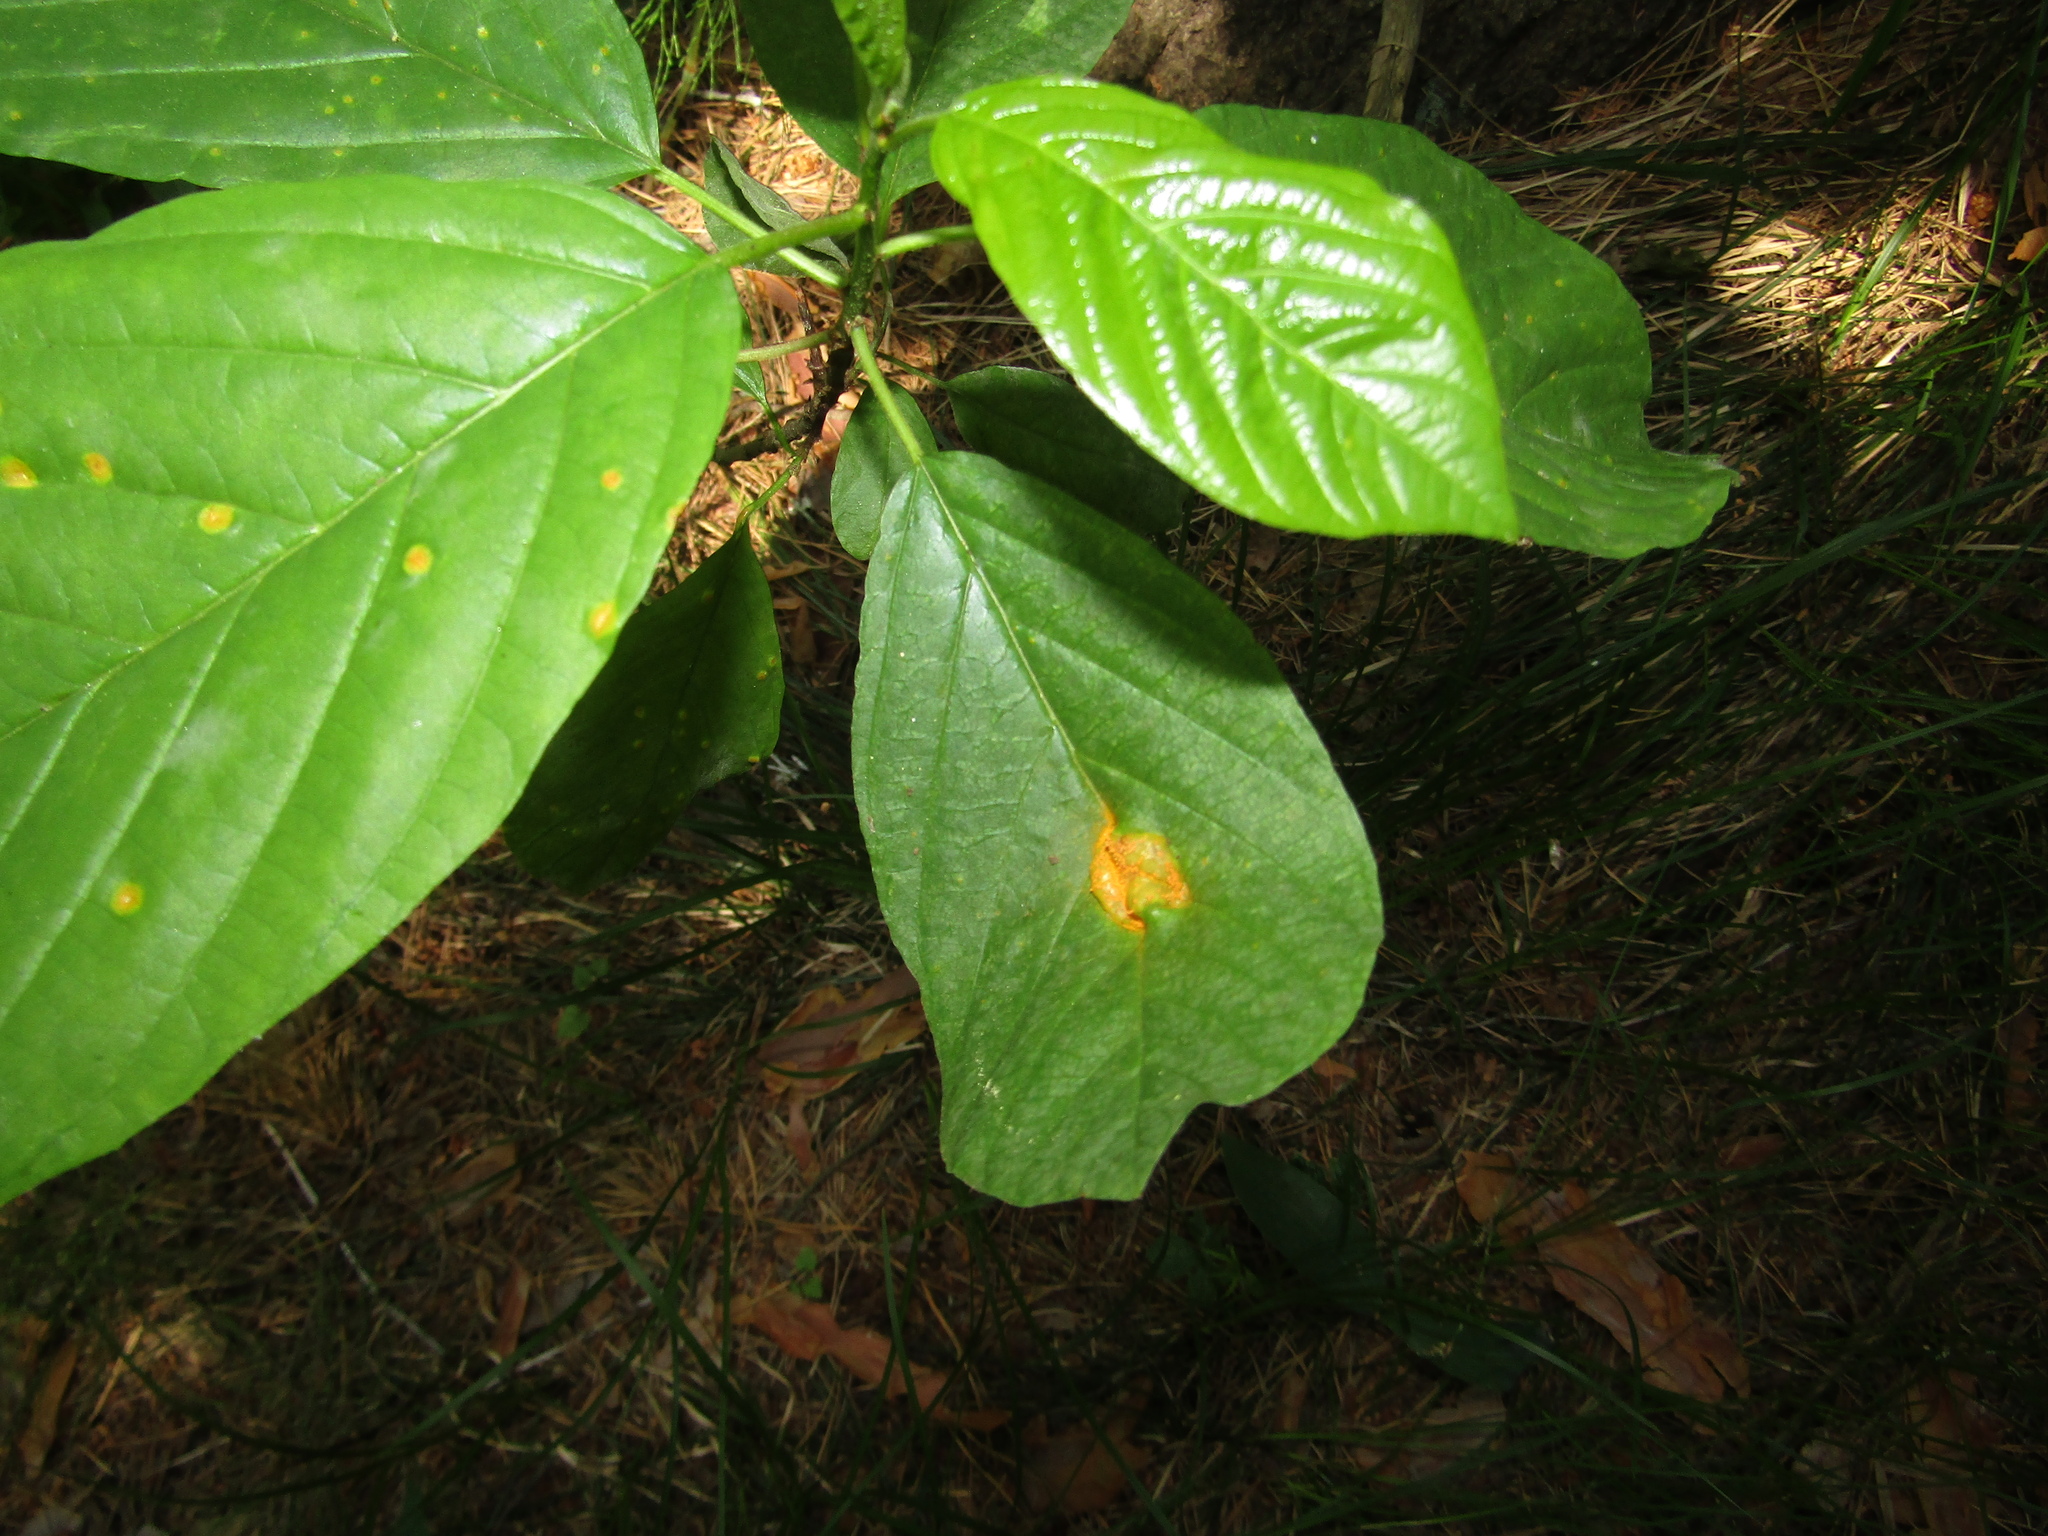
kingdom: Plantae
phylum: Tracheophyta
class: Magnoliopsida
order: Rosales
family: Rhamnaceae
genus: Frangula
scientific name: Frangula alnus
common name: Alder buckthorn
